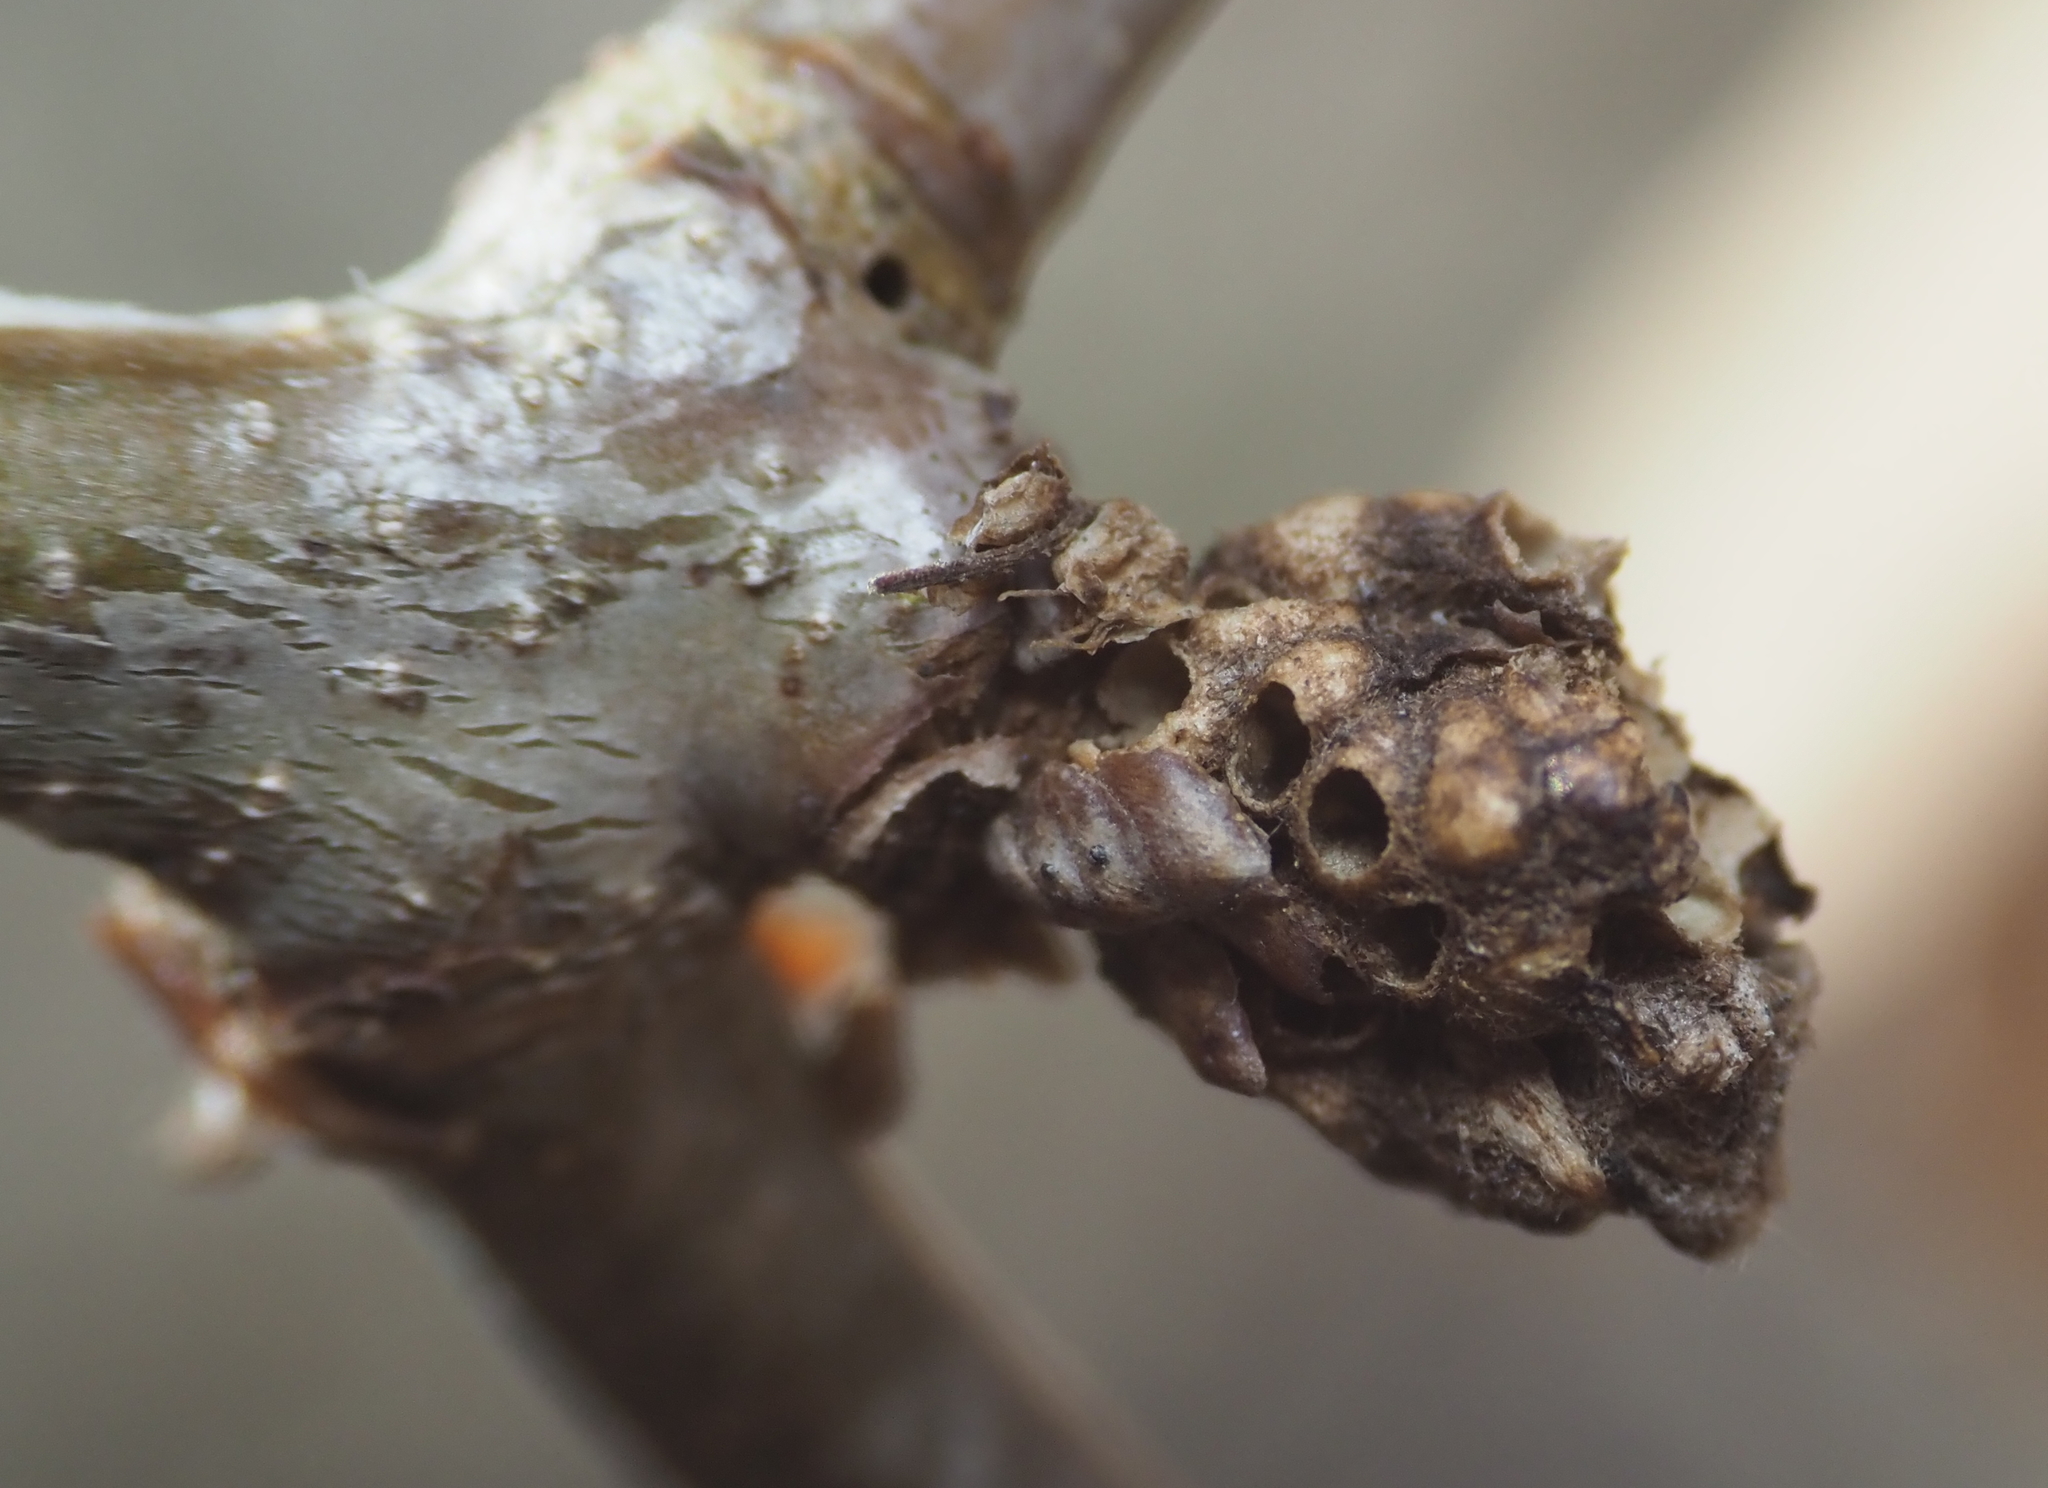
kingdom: Animalia
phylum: Arthropoda
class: Insecta
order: Hymenoptera
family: Cynipidae
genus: Neuroterus
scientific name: Neuroterus minutulus
